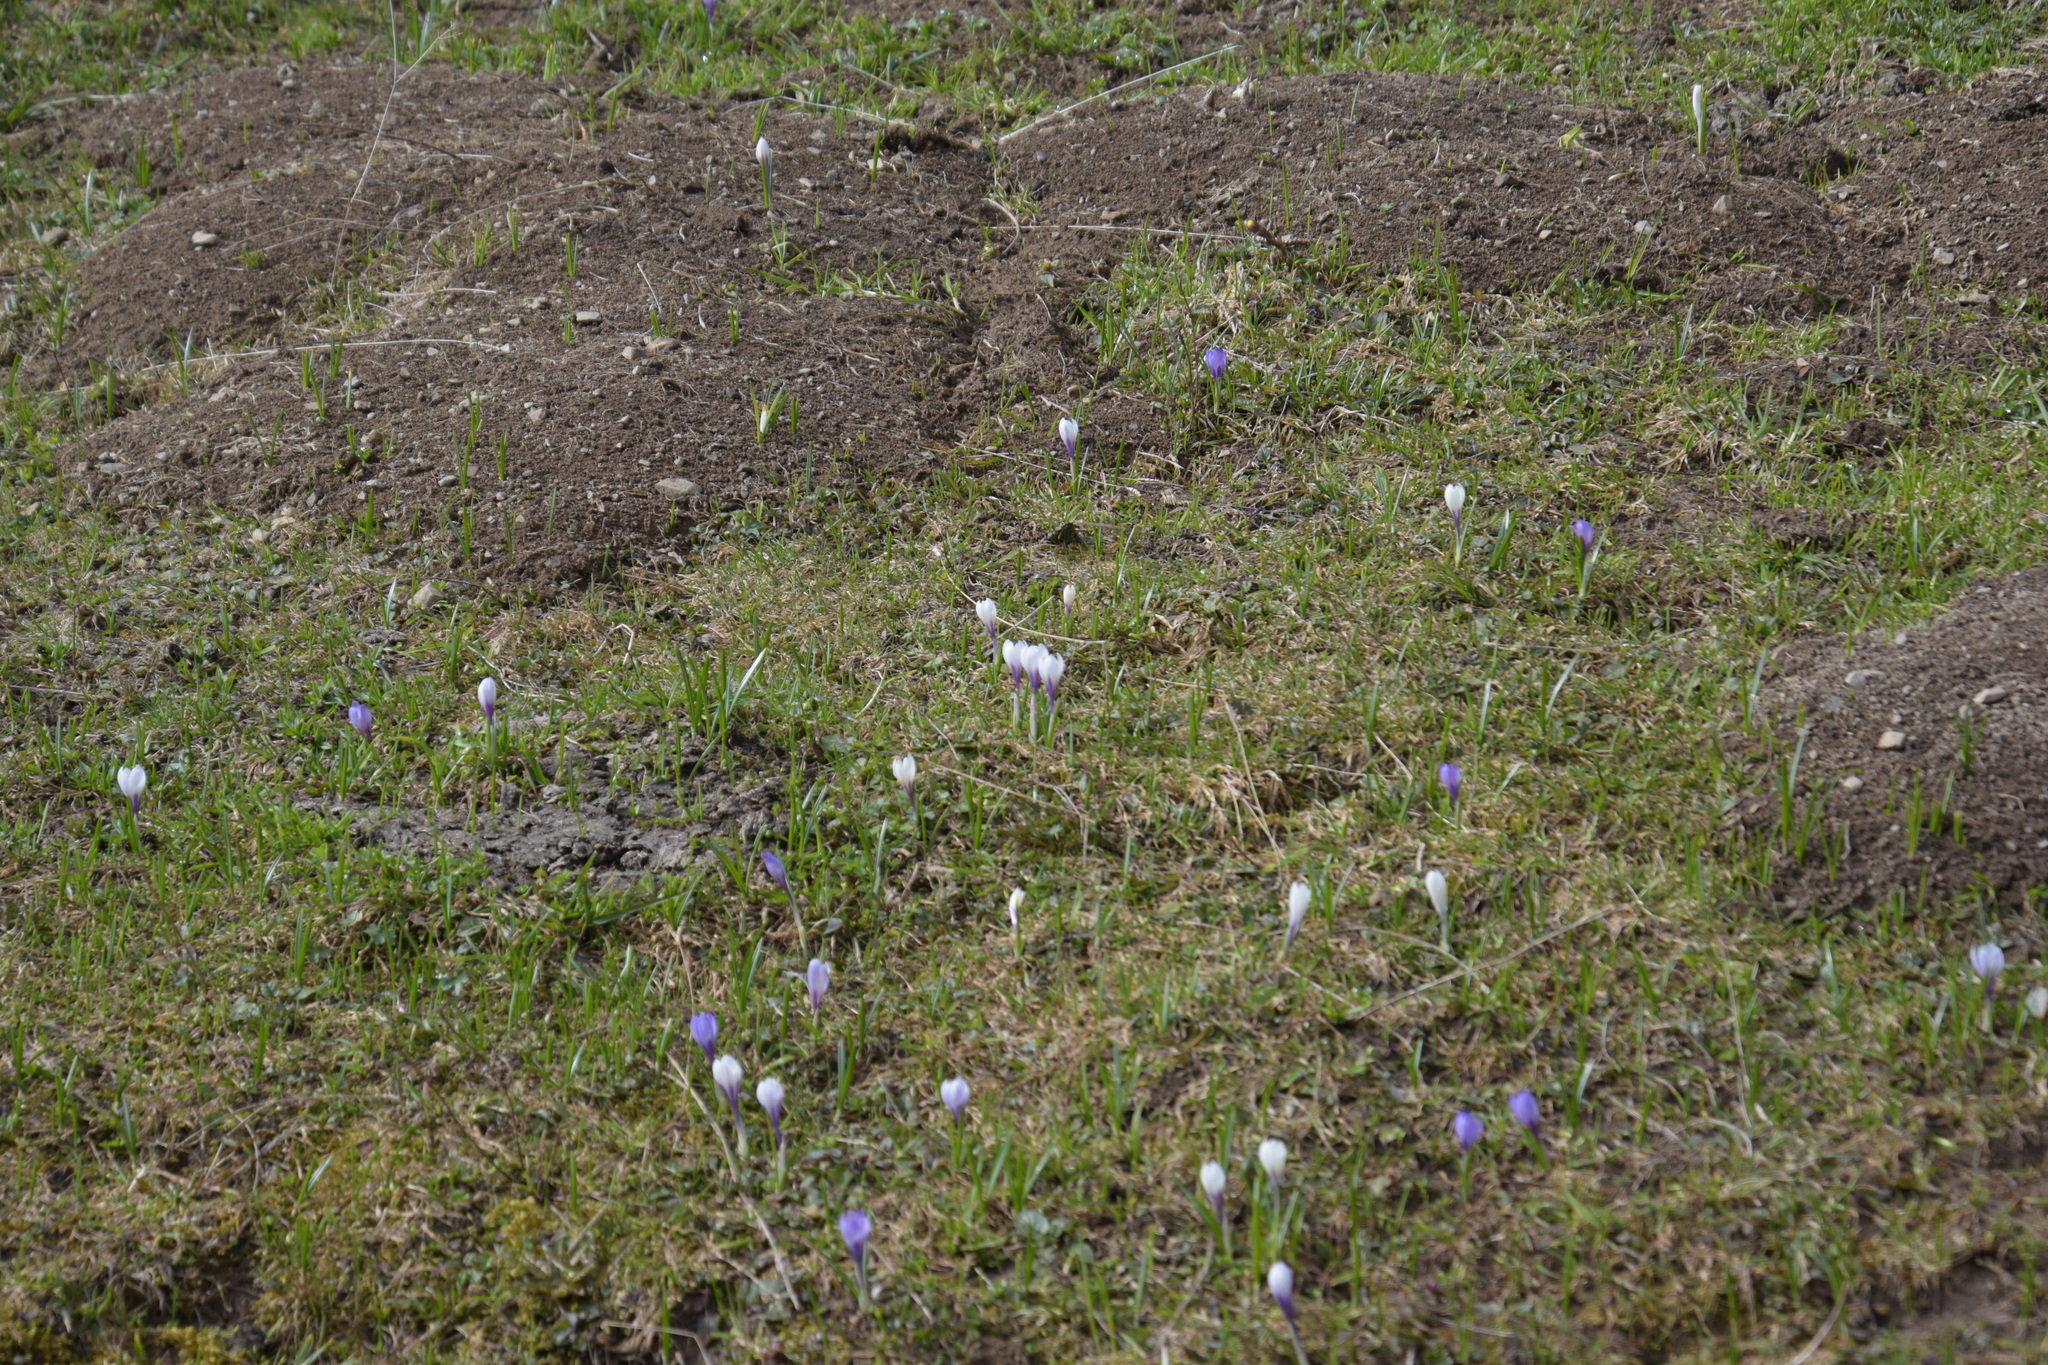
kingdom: Plantae
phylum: Tracheophyta
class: Liliopsida
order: Asparagales
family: Iridaceae
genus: Crocus
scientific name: Crocus vernus
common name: Spring crocus
